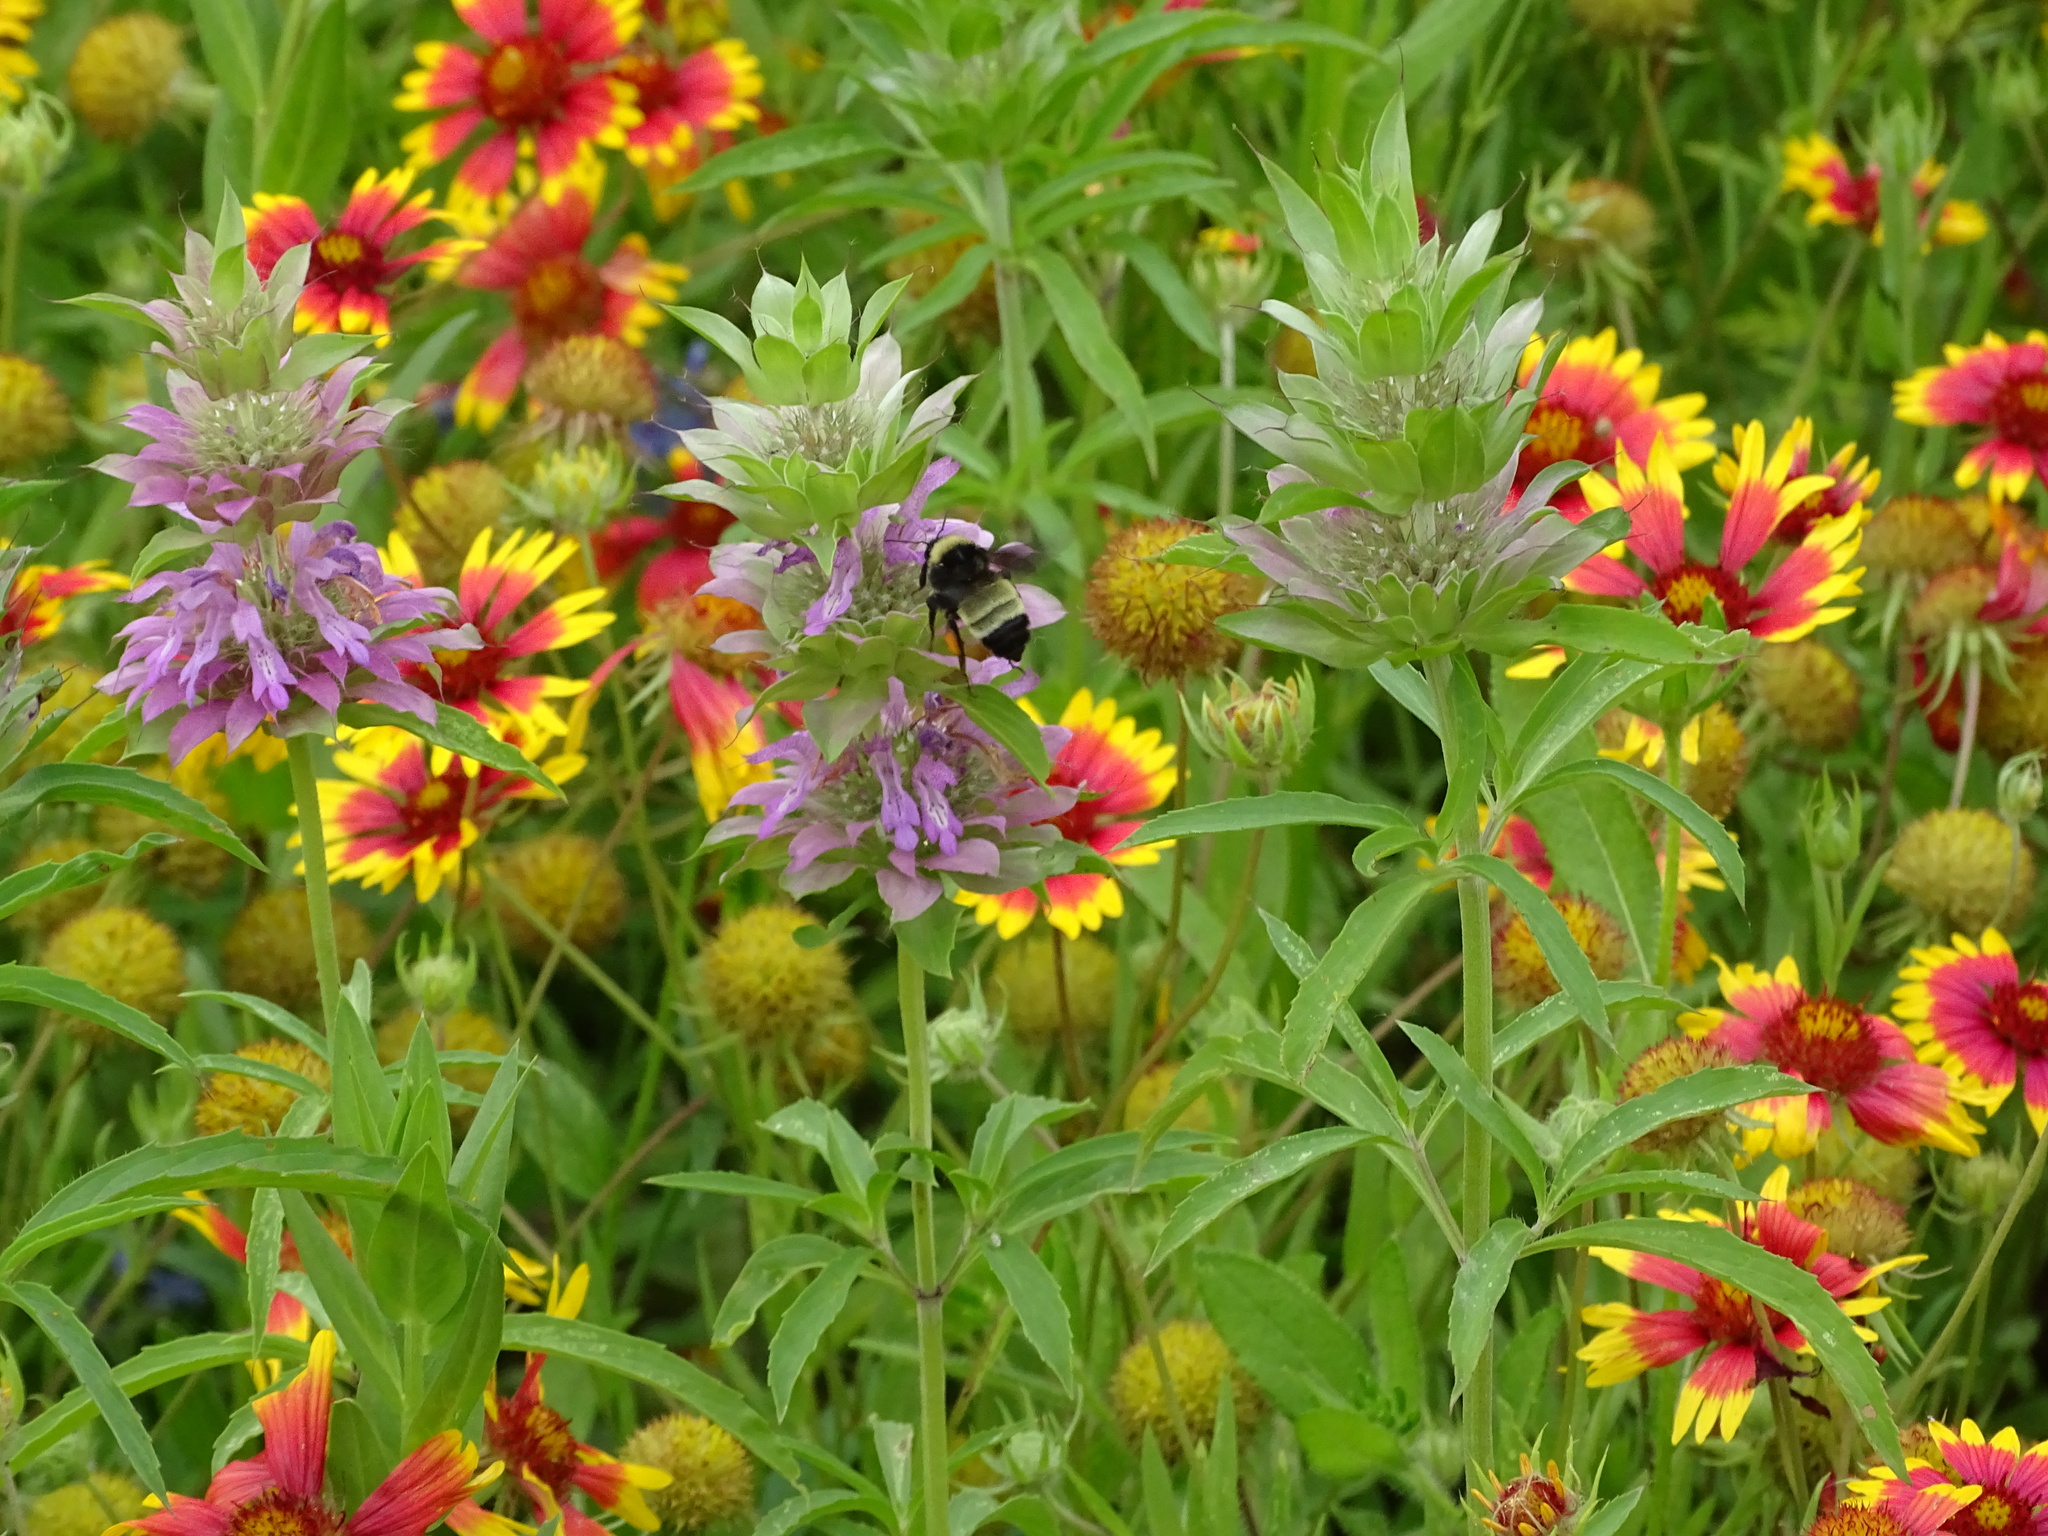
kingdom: Animalia
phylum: Arthropoda
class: Insecta
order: Hymenoptera
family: Apidae
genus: Bombus
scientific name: Bombus pensylvanicus
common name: Bumble bee
